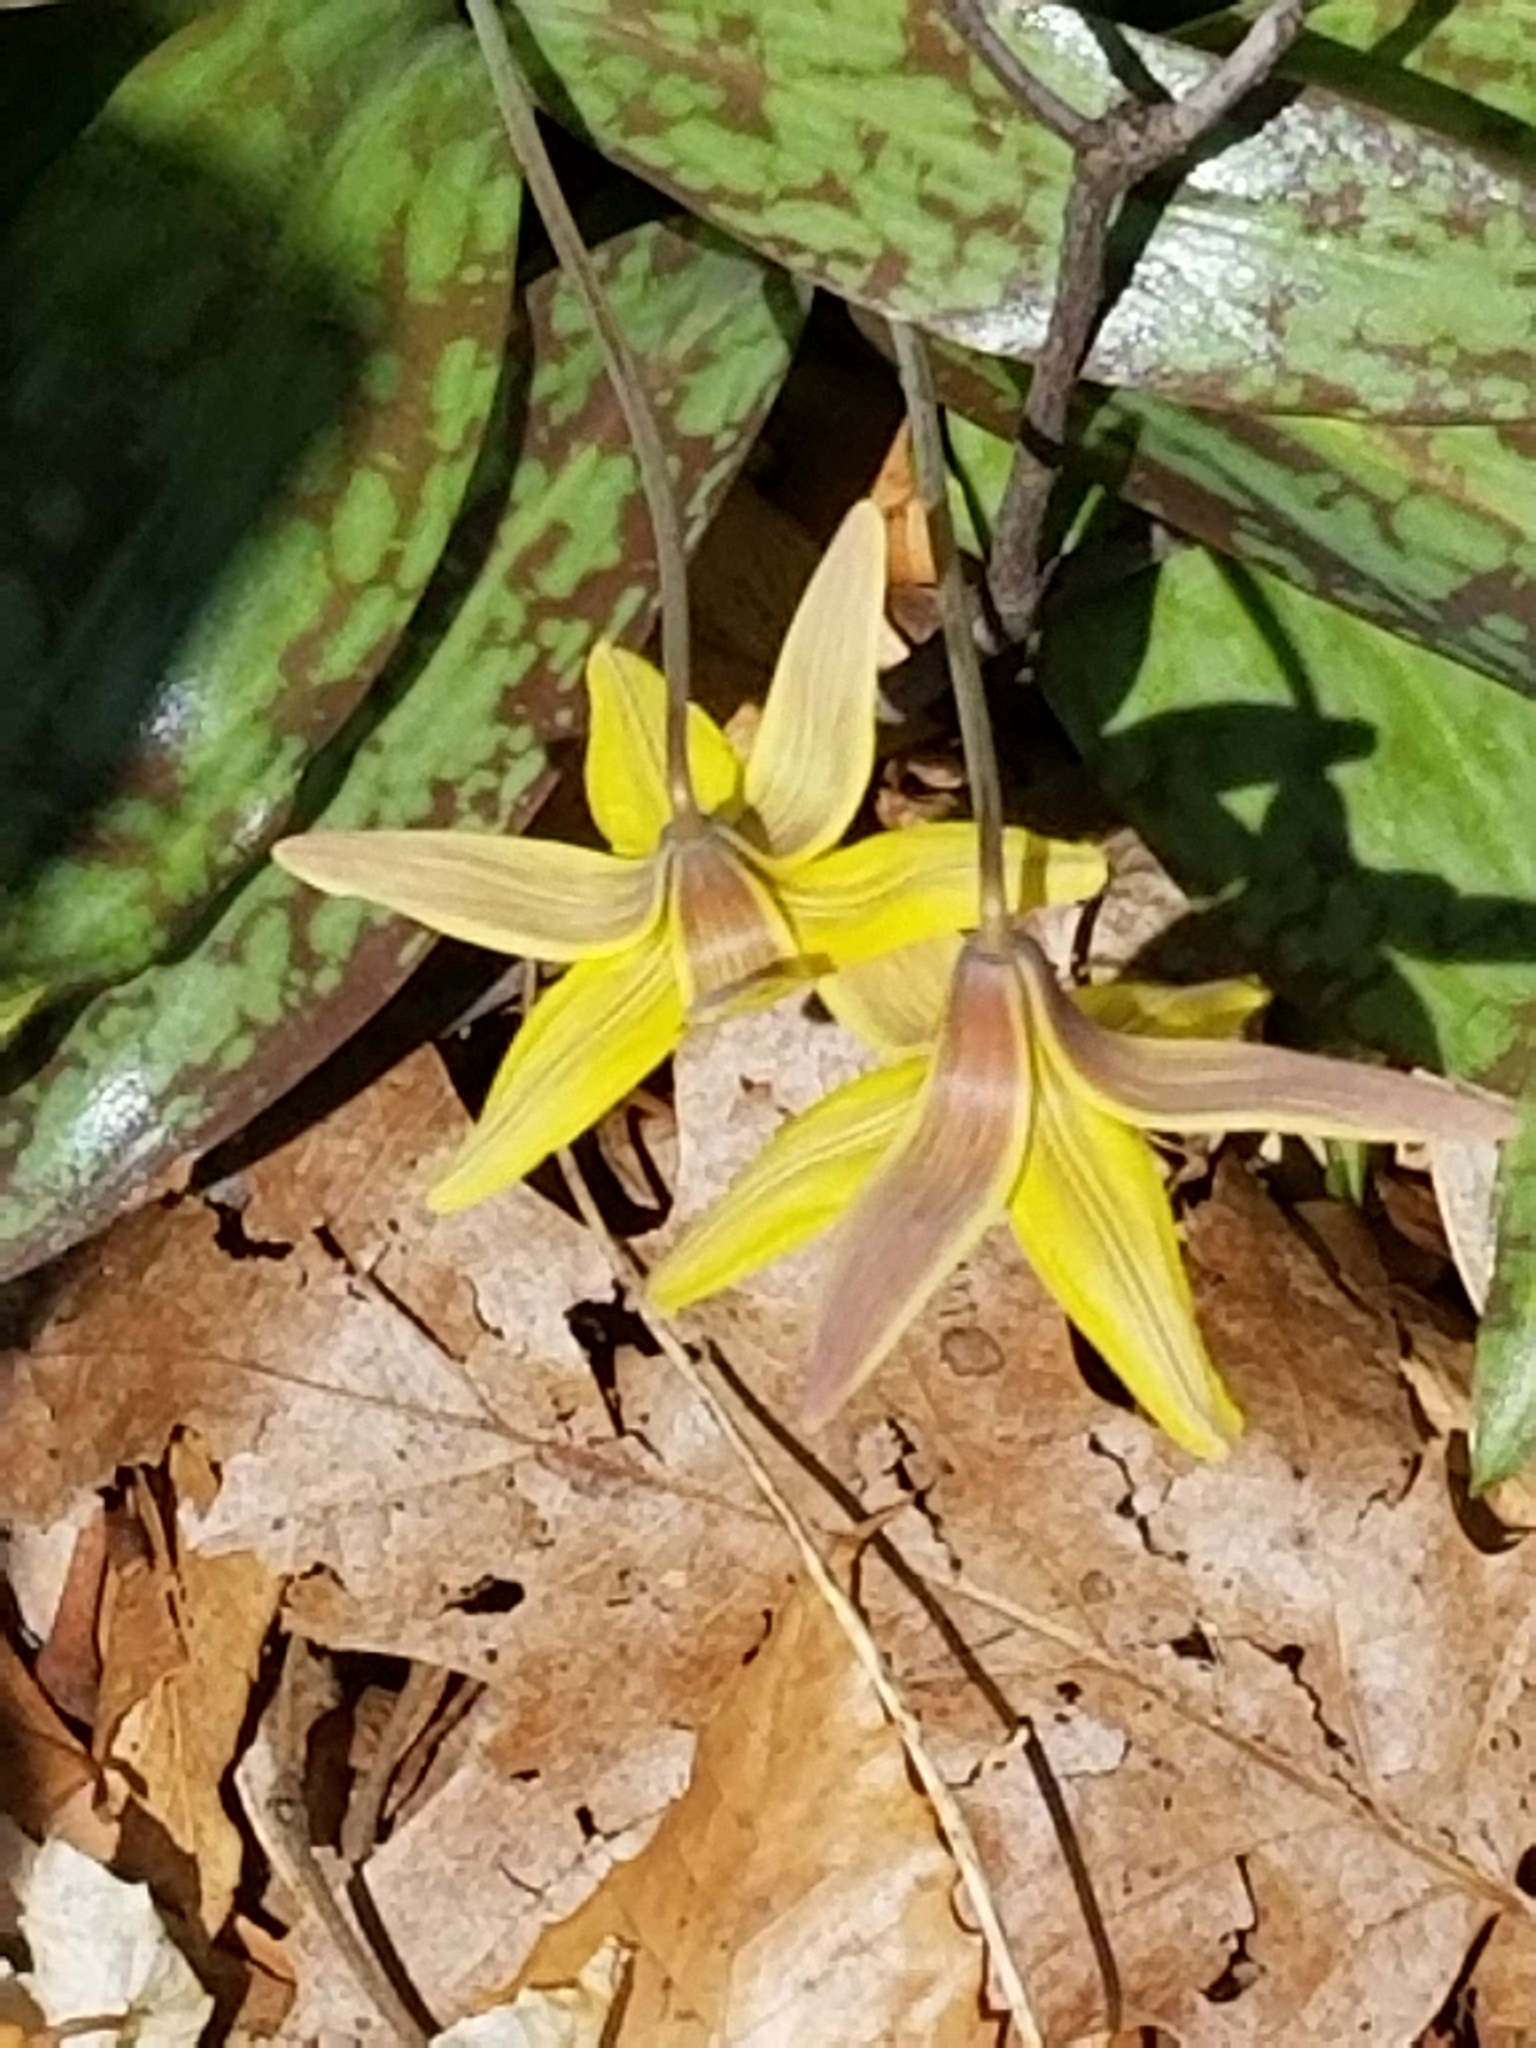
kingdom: Plantae
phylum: Tracheophyta
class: Liliopsida
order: Liliales
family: Liliaceae
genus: Erythronium
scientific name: Erythronium americanum
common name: Yellow adder's-tongue
